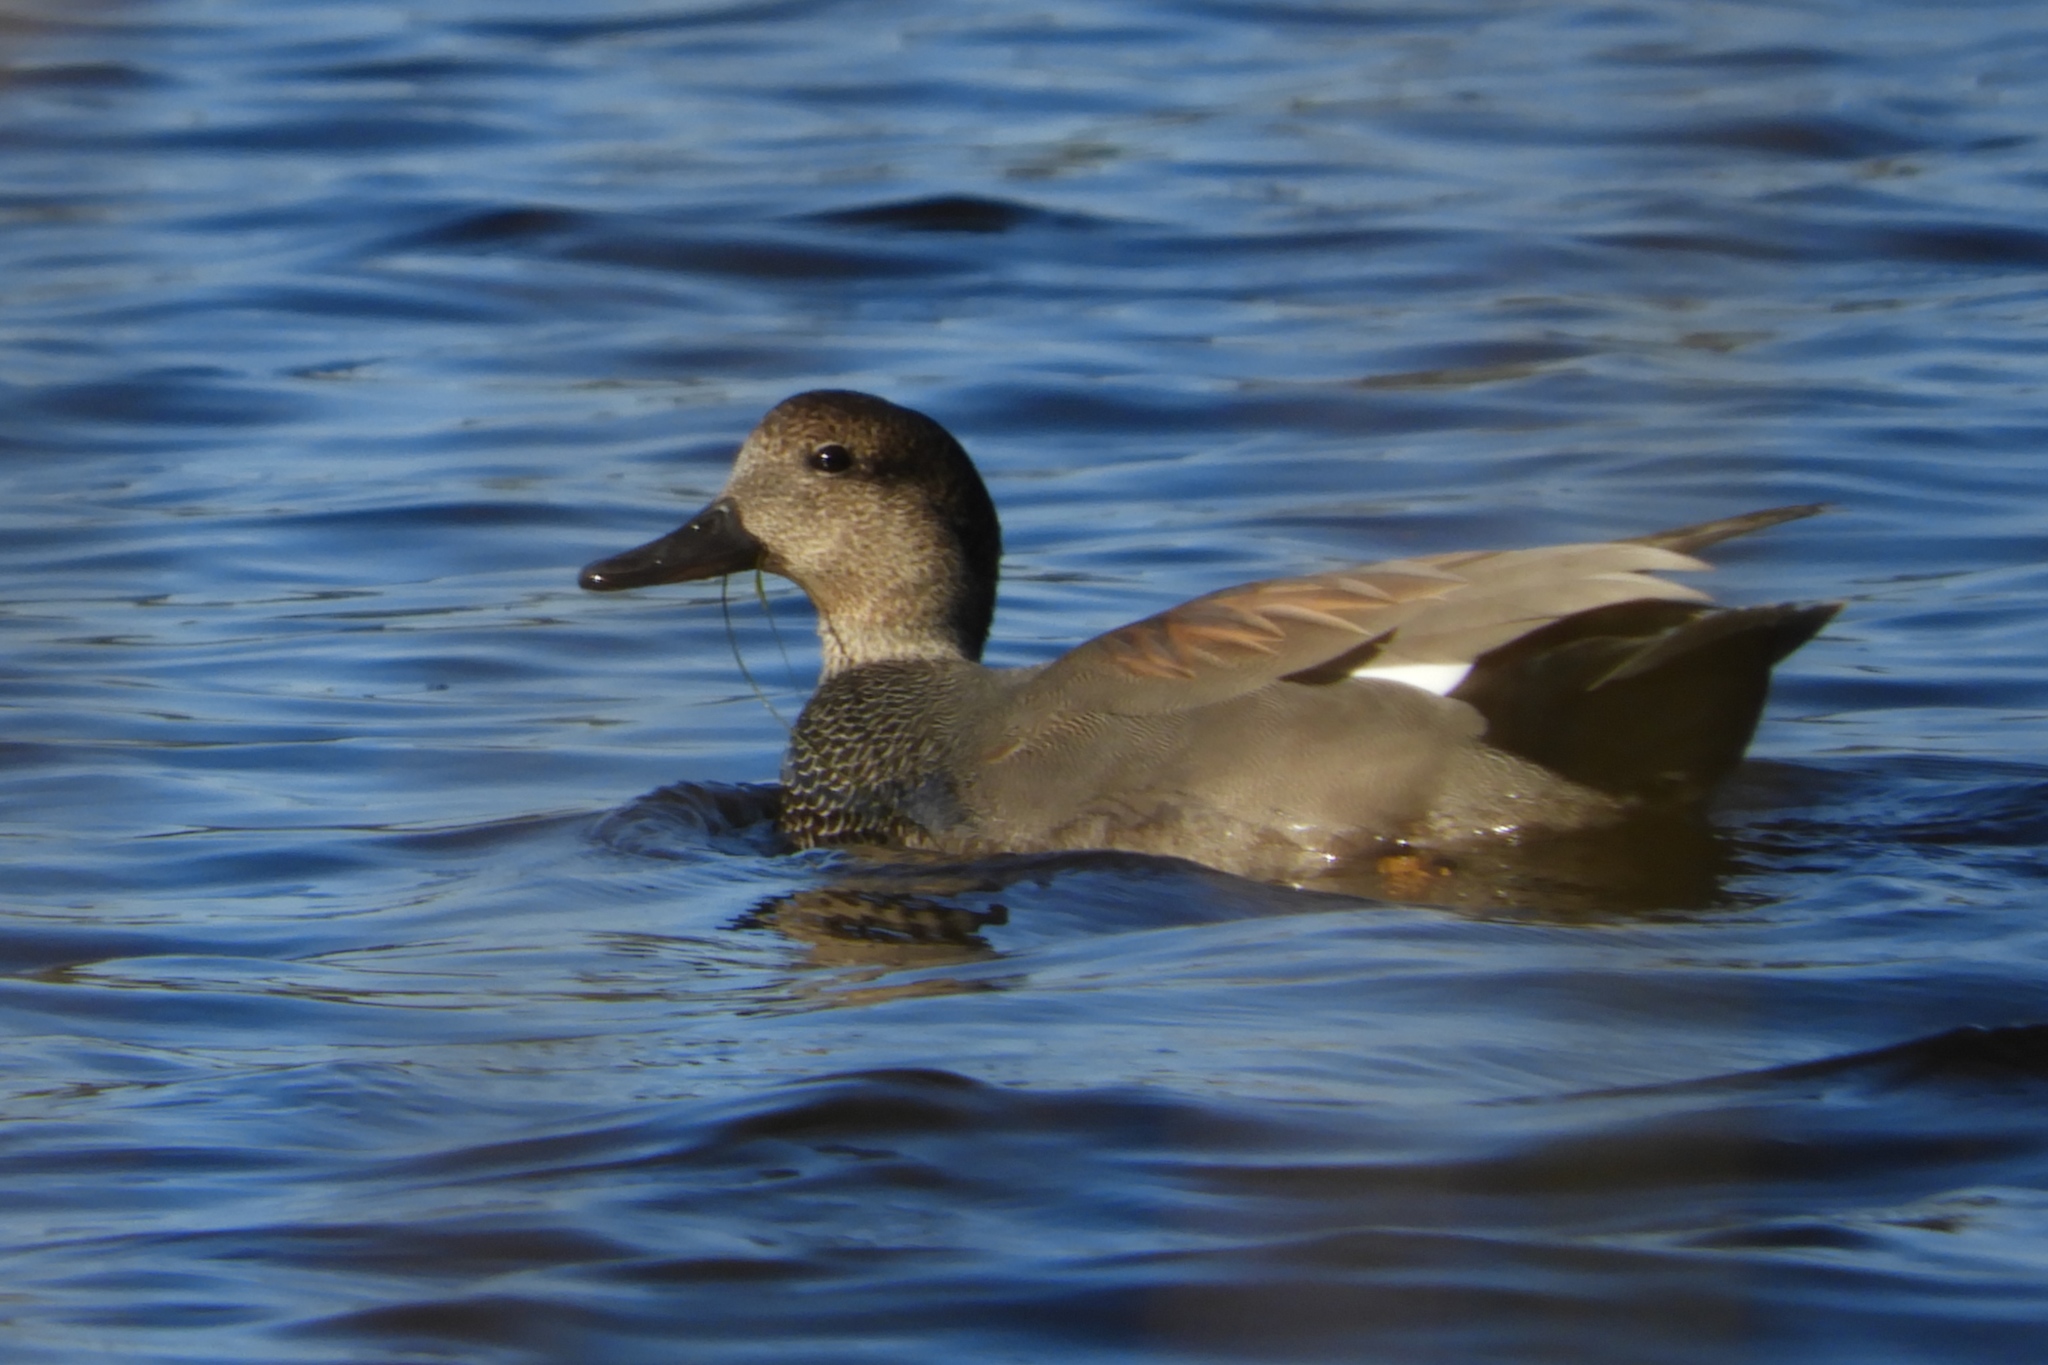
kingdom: Animalia
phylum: Chordata
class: Aves
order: Anseriformes
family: Anatidae
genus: Mareca
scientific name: Mareca strepera
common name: Gadwall
